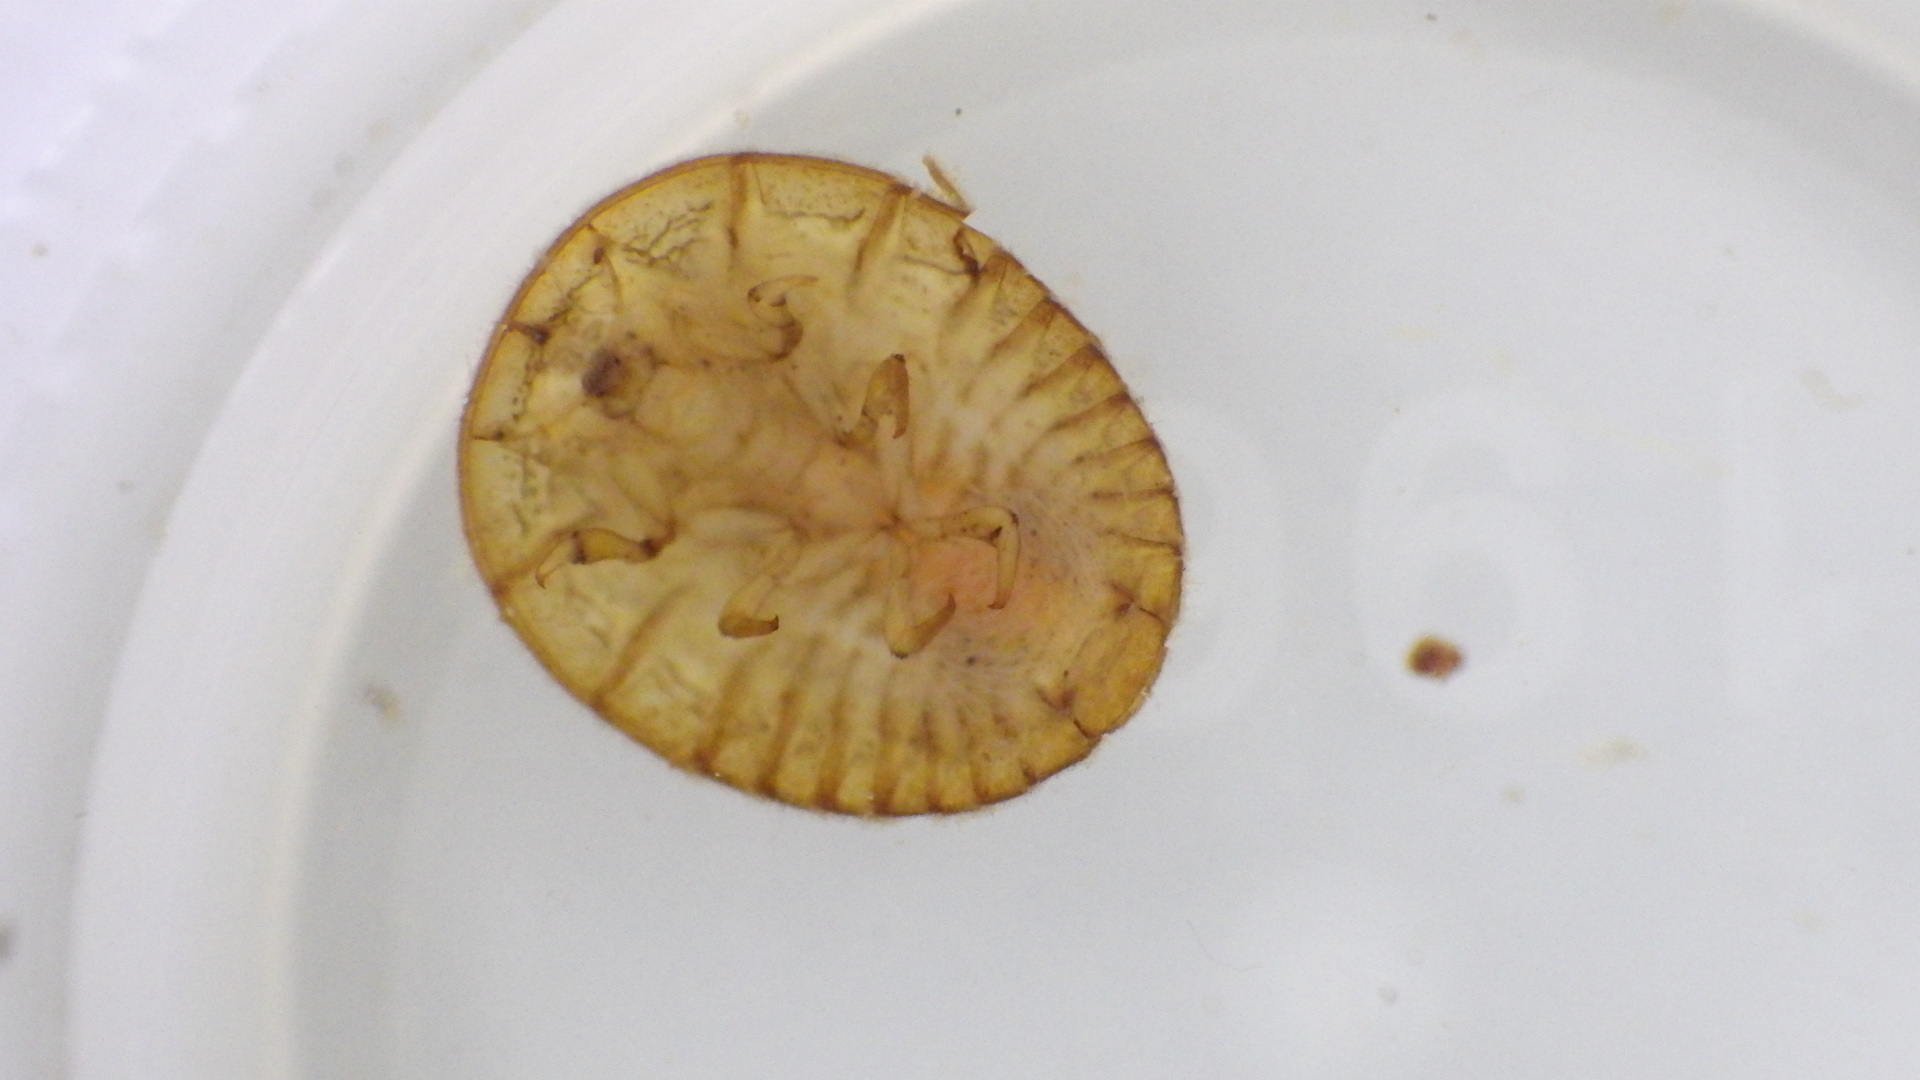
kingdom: Animalia
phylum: Arthropoda
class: Insecta
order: Coleoptera
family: Psephenidae
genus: Psephenus
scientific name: Psephenus herricki
